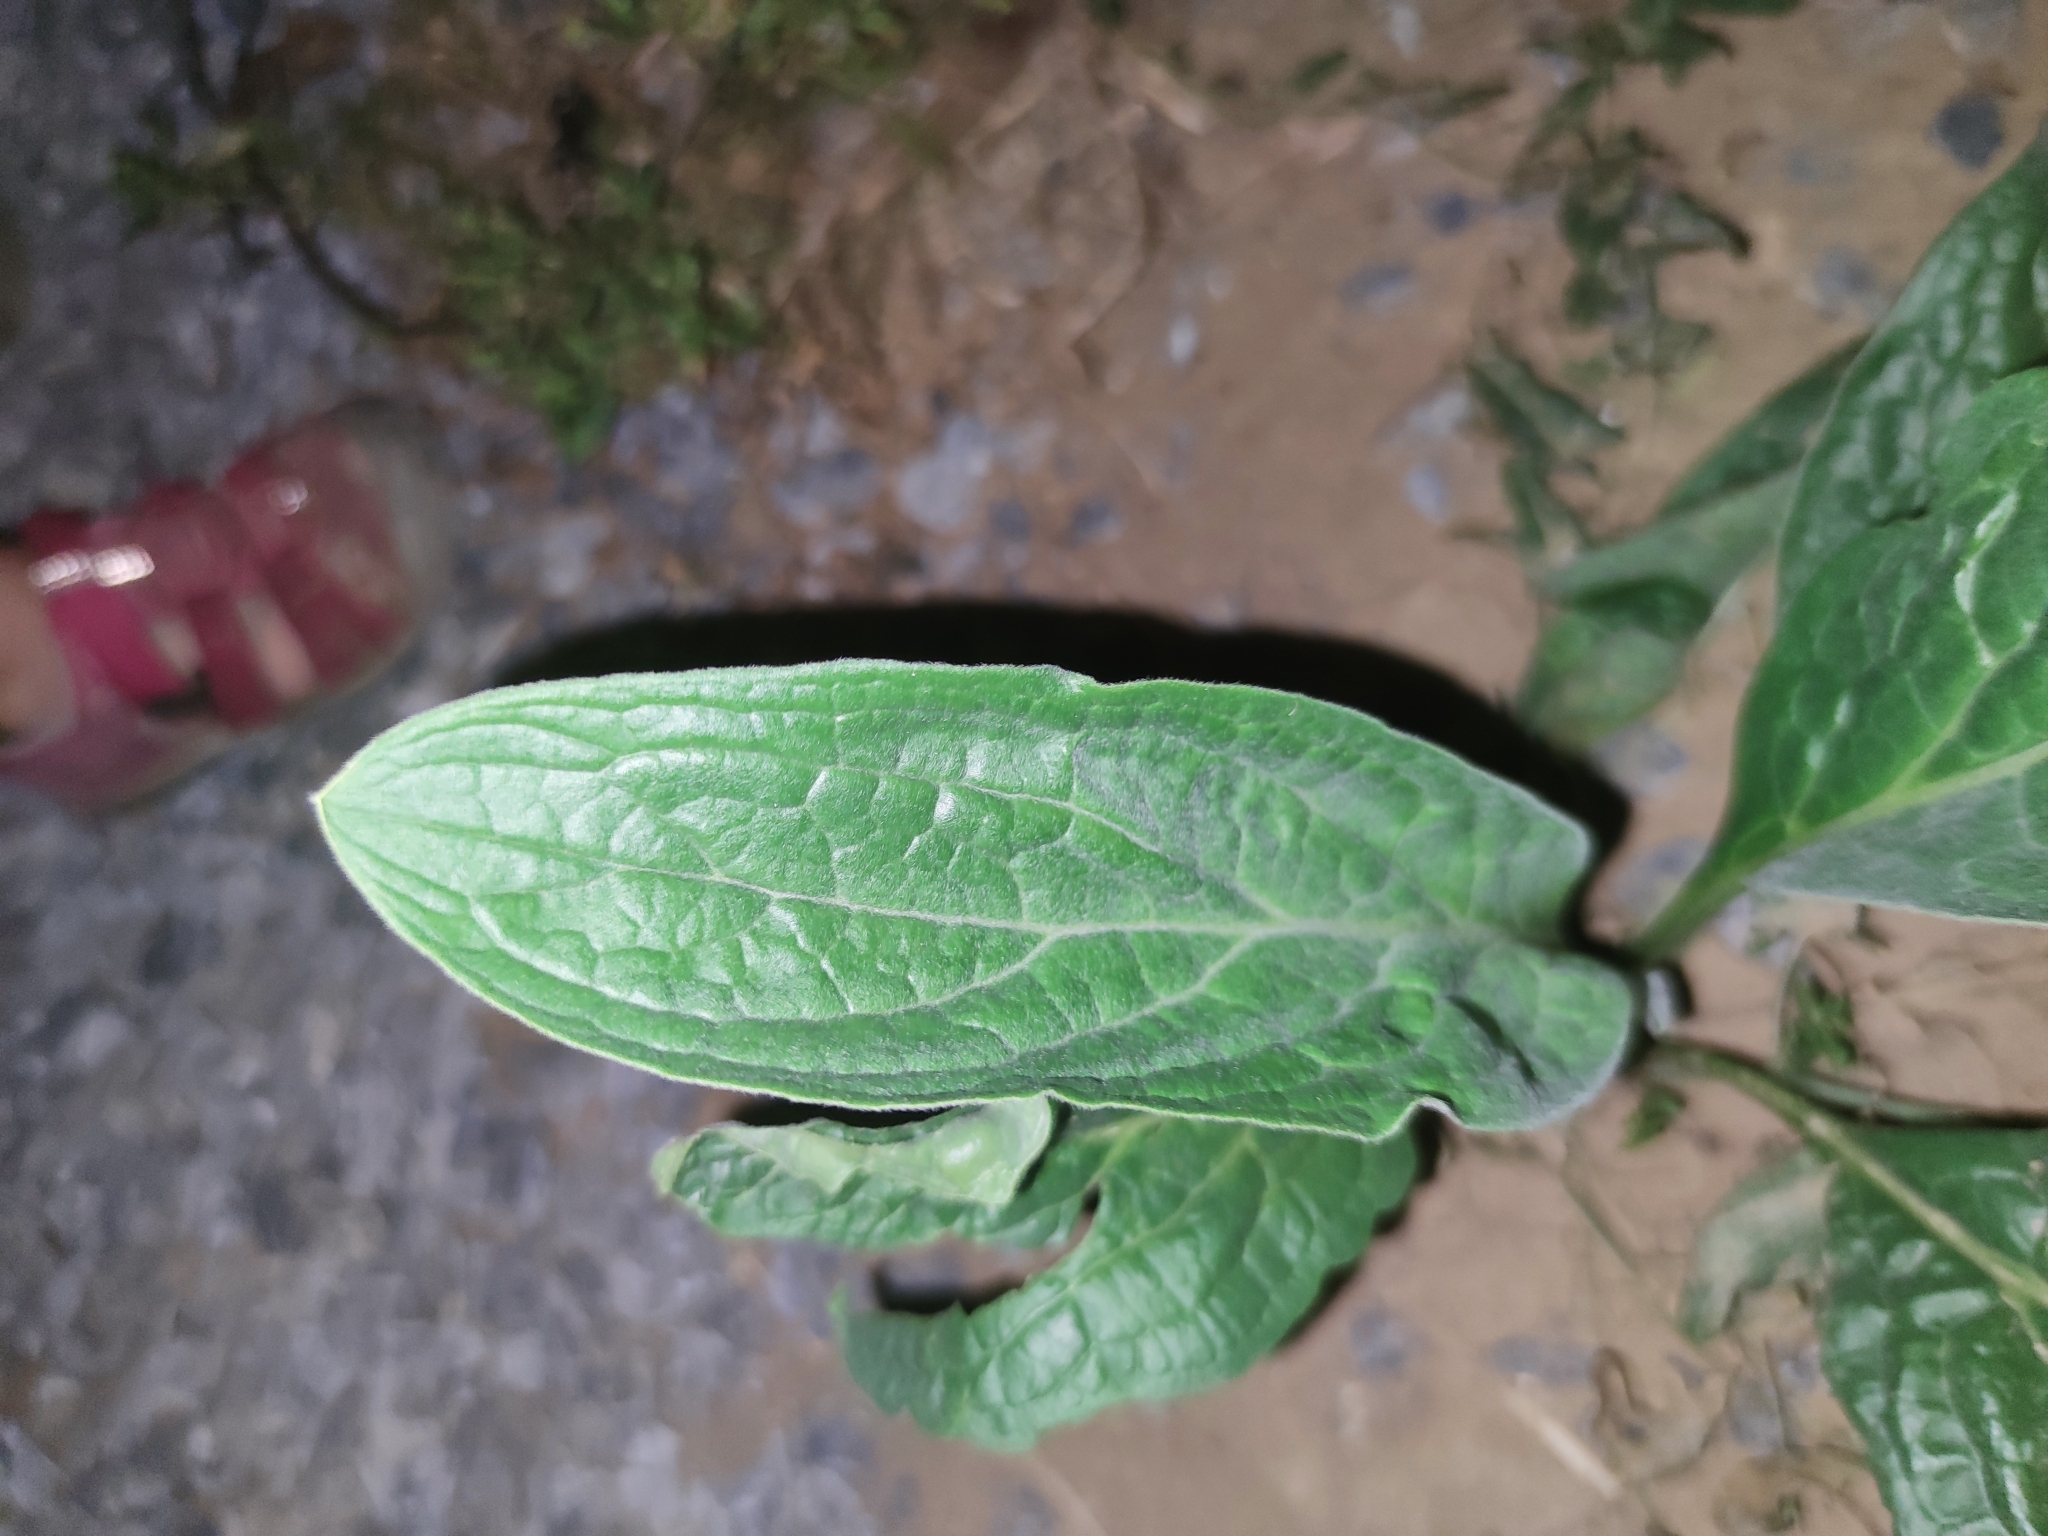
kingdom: Plantae
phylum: Tracheophyta
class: Magnoliopsida
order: Boraginales
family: Boraginaceae
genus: Cynoglossum
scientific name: Cynoglossum officinale
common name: Hound's-tongue
